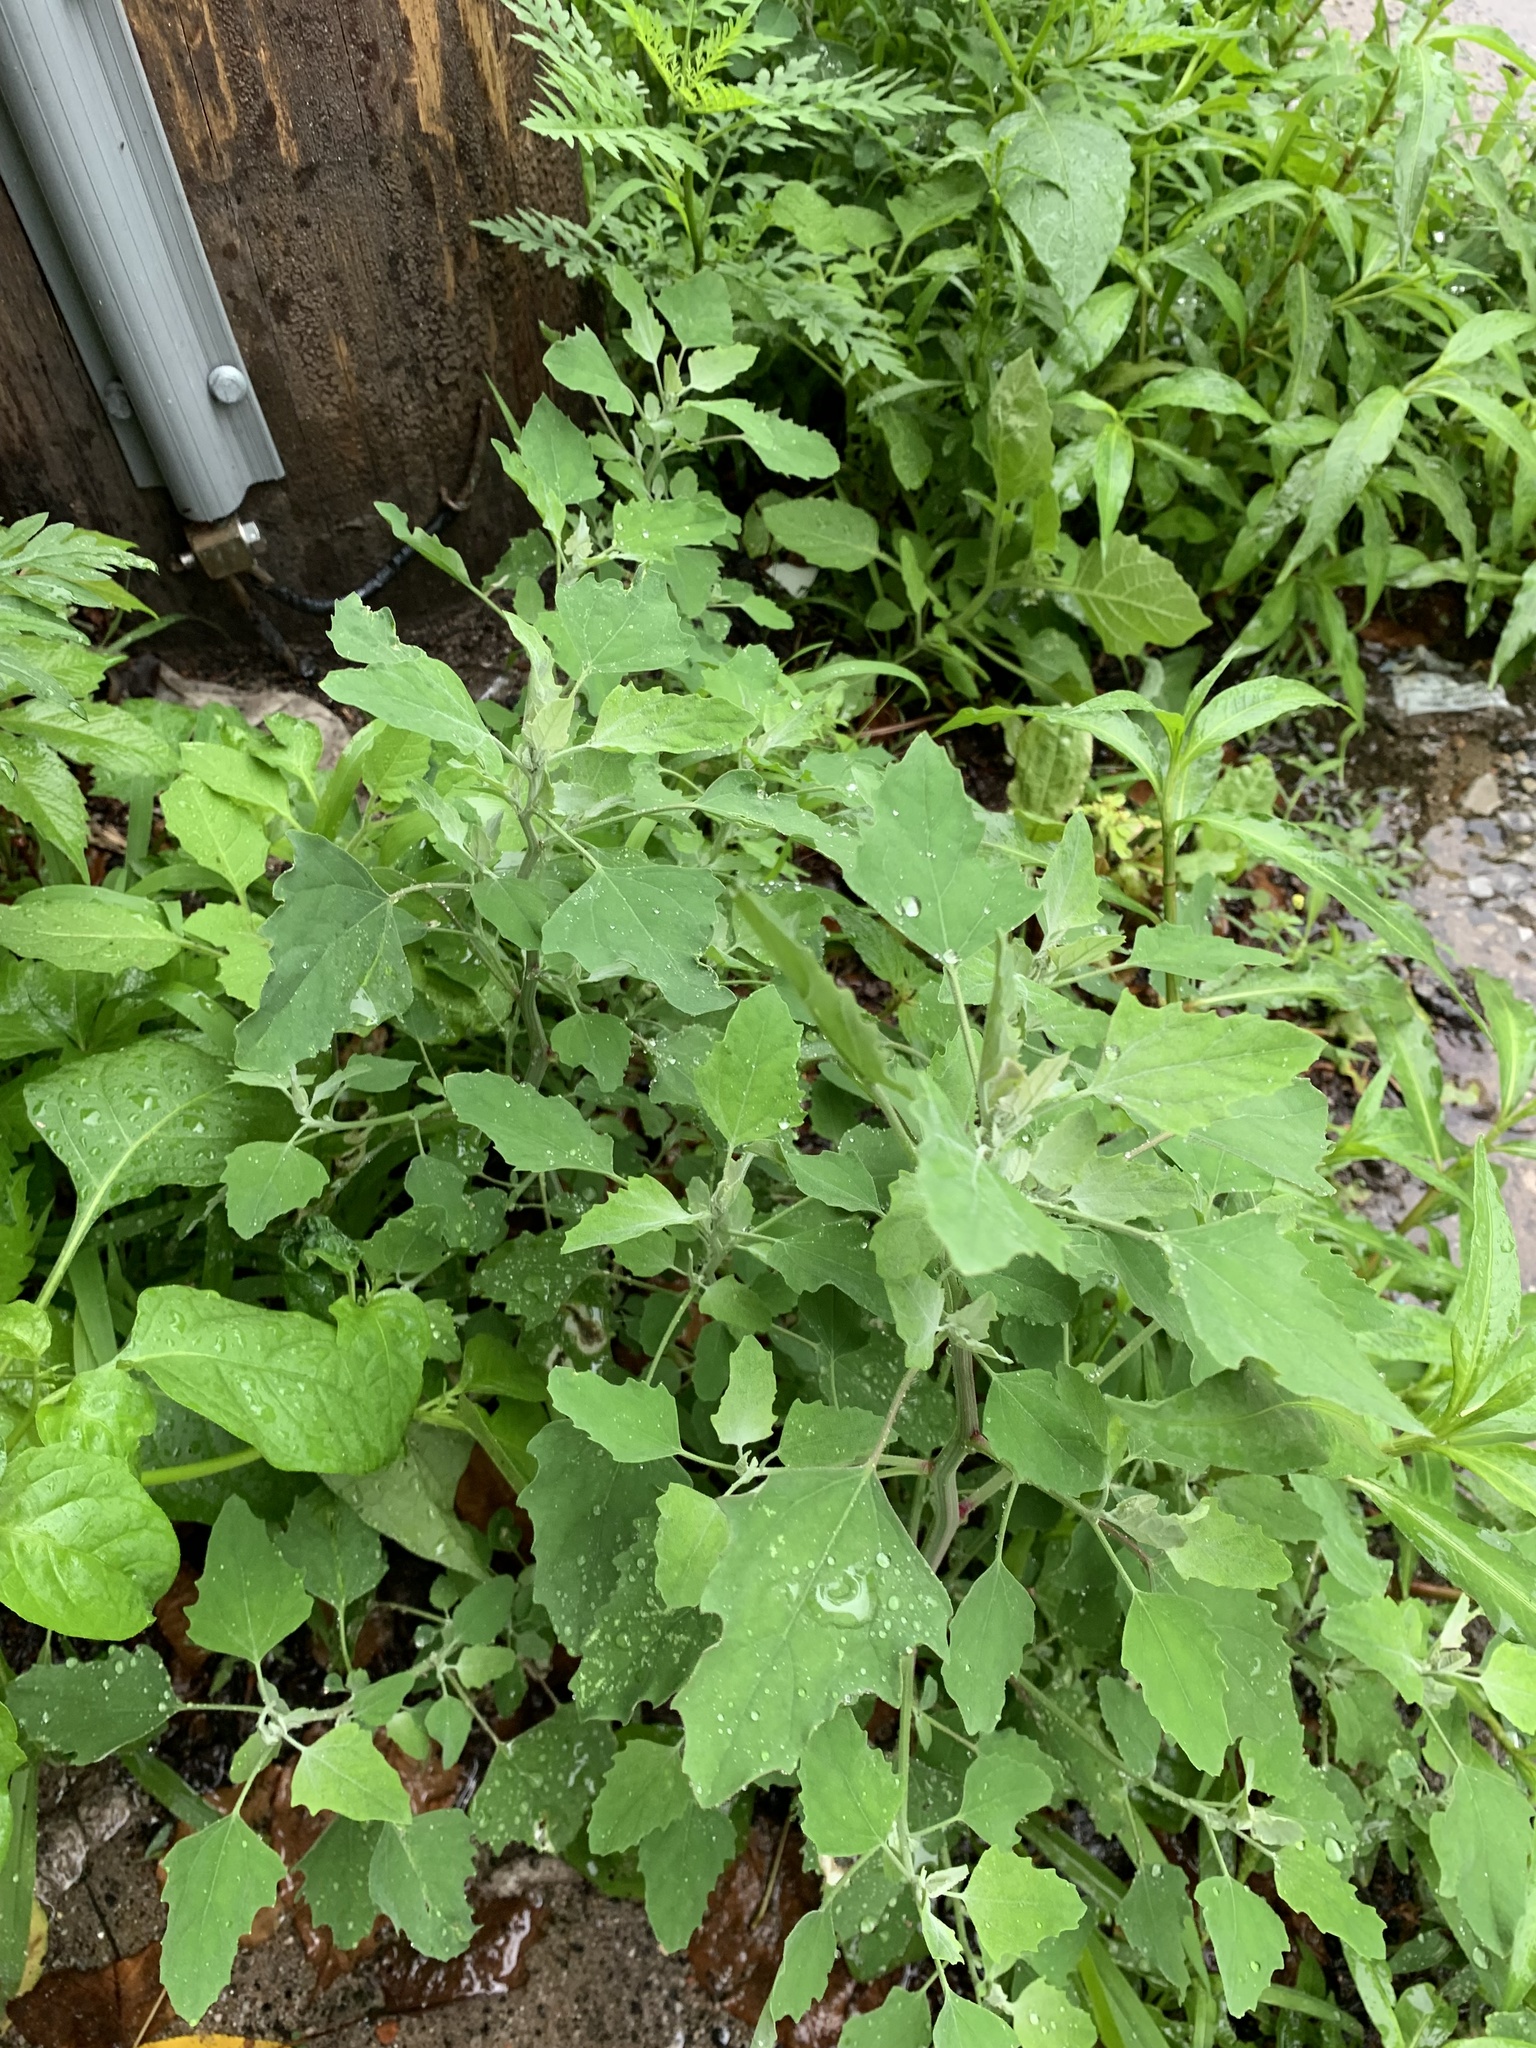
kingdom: Plantae
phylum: Tracheophyta
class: Magnoliopsida
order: Caryophyllales
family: Amaranthaceae
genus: Chenopodium
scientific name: Chenopodium album
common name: Fat-hen
